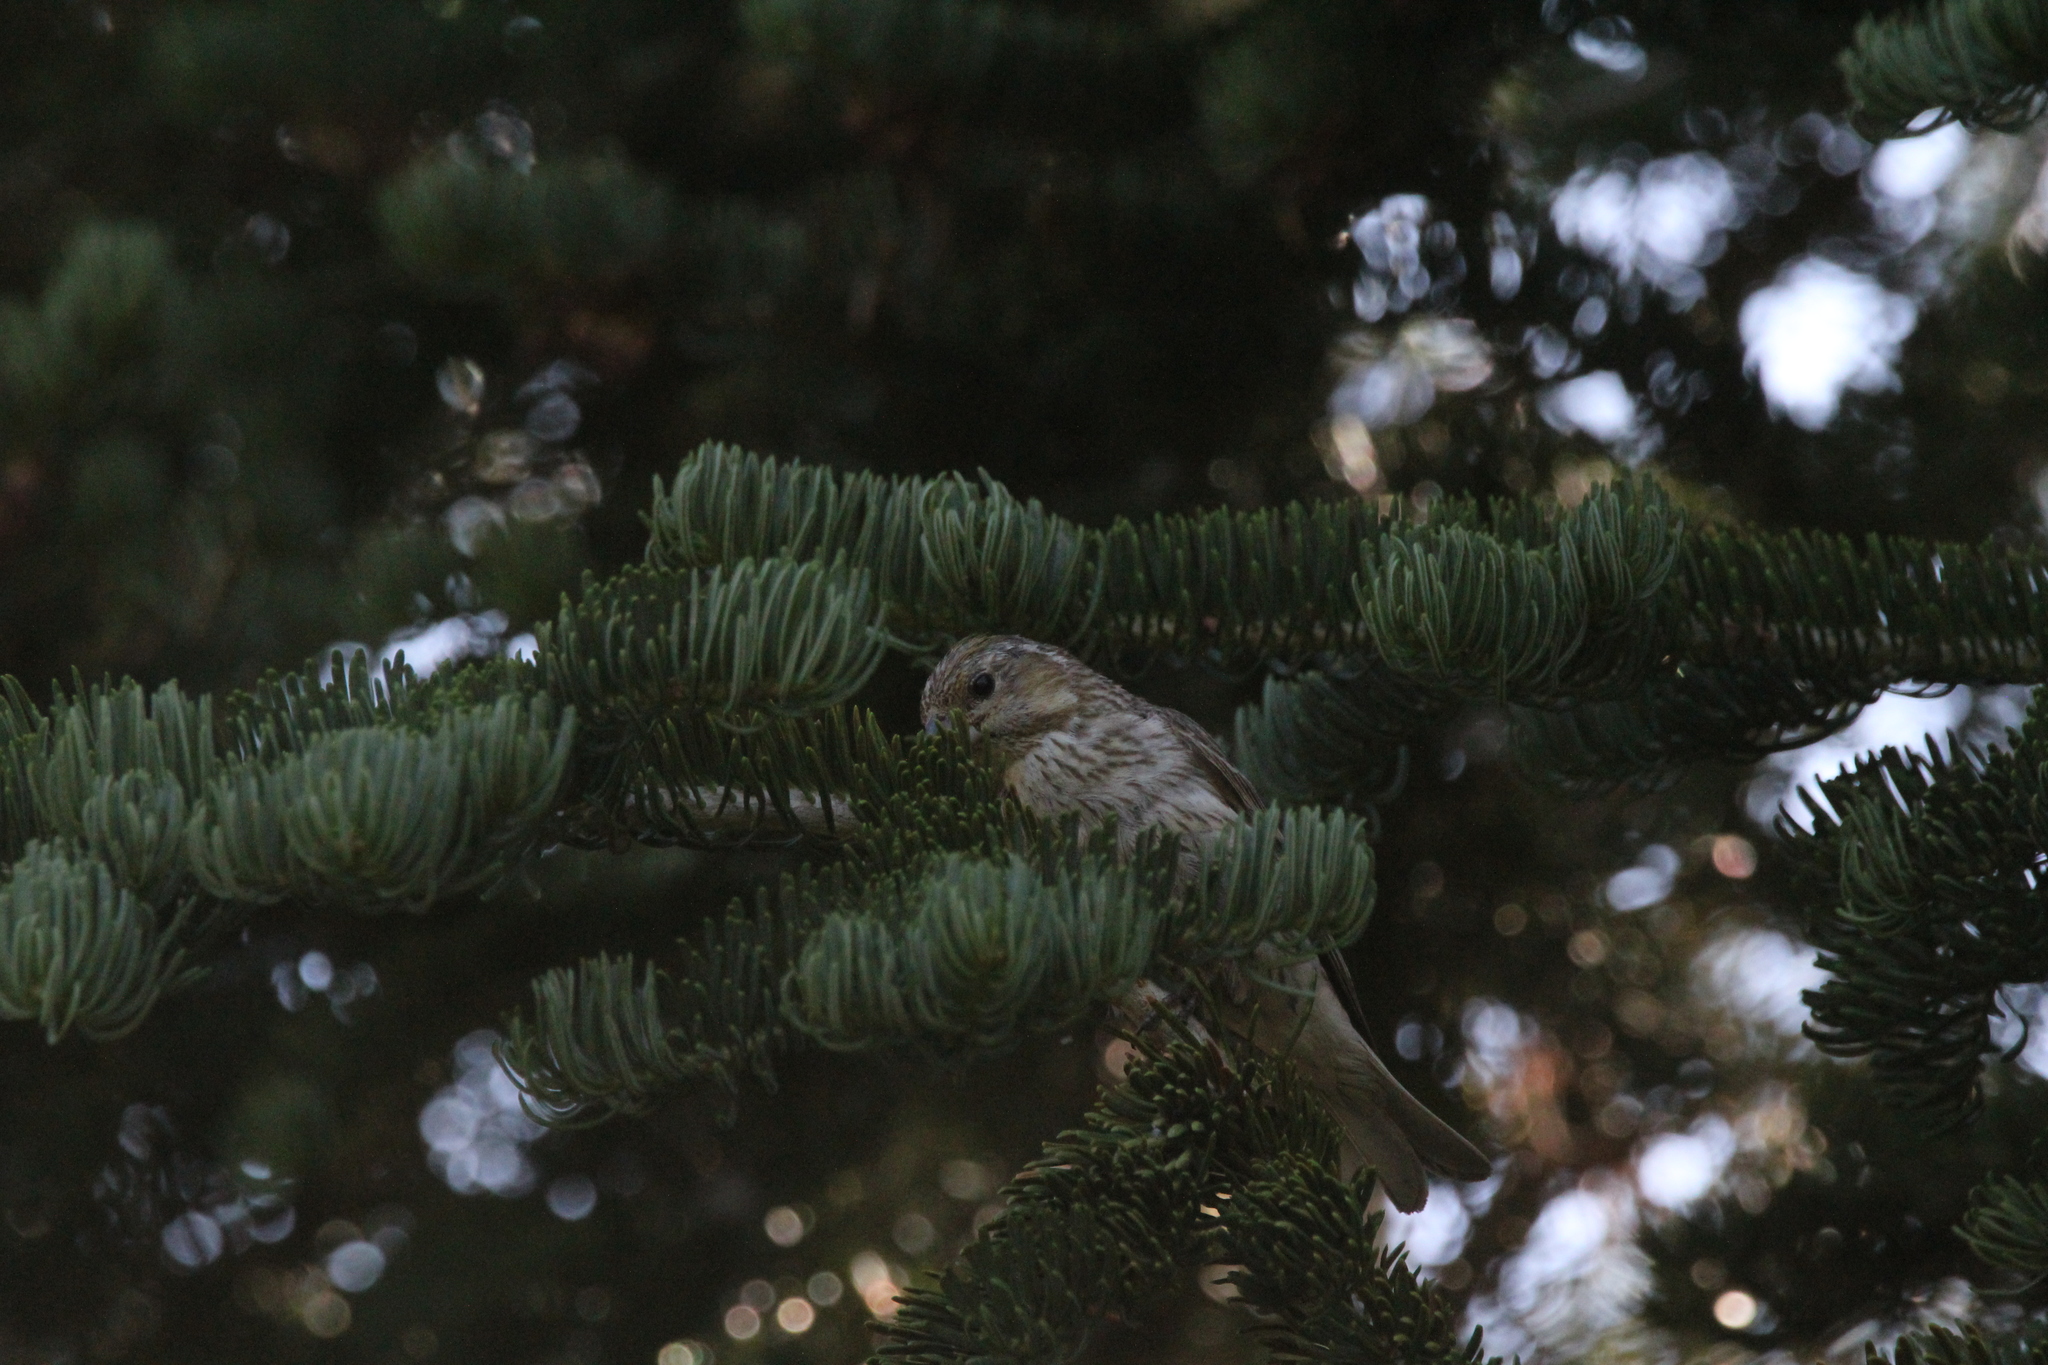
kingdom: Animalia
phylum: Chordata
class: Aves
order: Passeriformes
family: Fringillidae
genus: Haemorhous
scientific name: Haemorhous cassinii
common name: Cassin's finch
